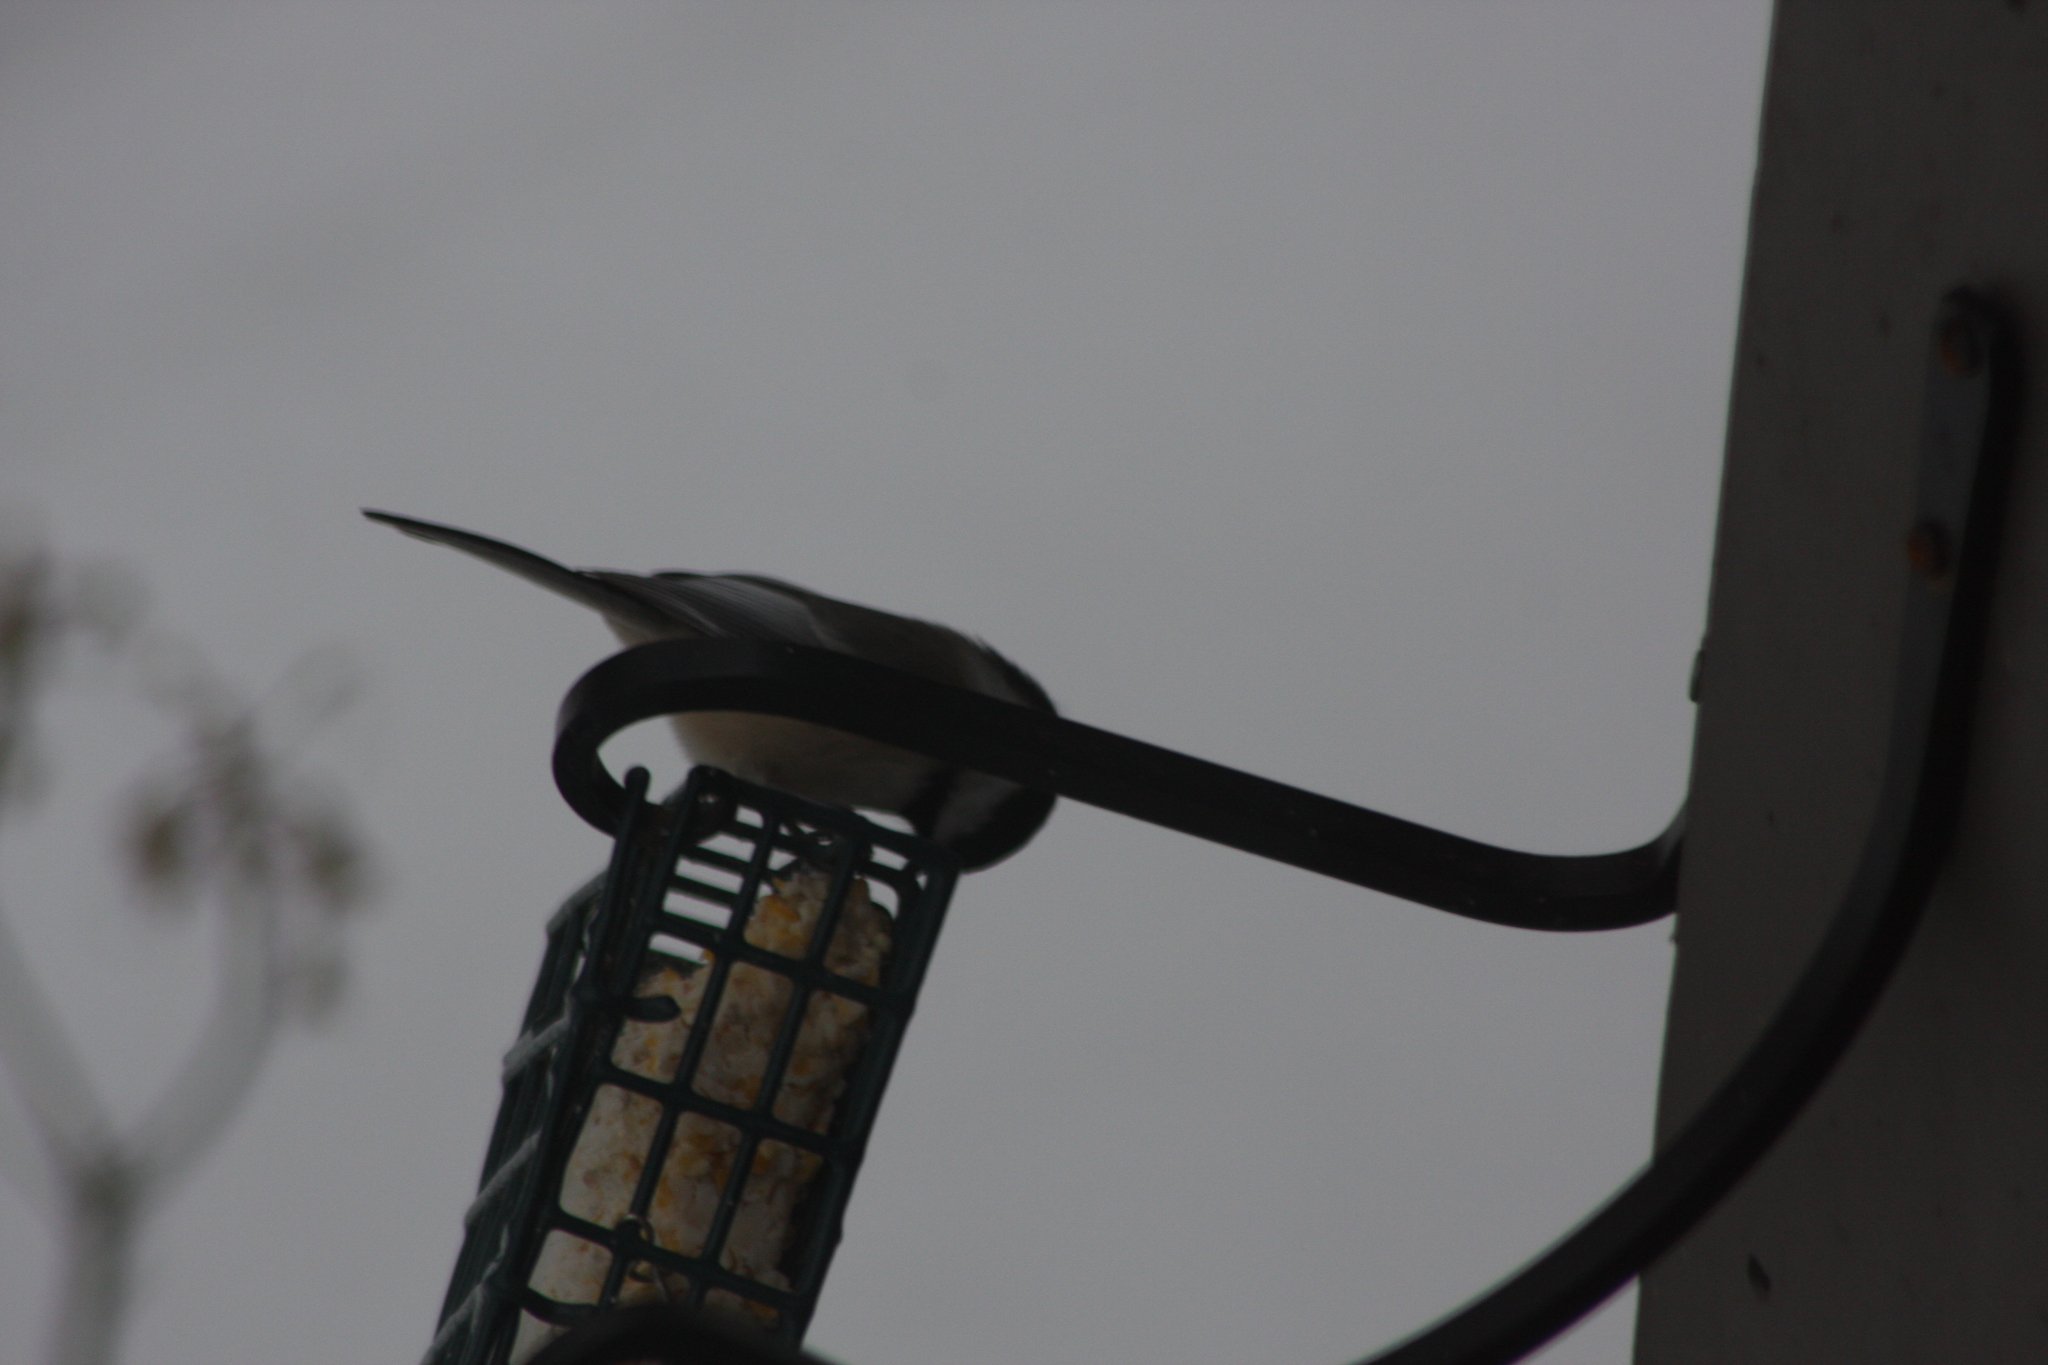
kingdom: Animalia
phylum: Chordata
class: Aves
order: Passeriformes
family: Paridae
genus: Poecile
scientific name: Poecile atricapillus
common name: Black-capped chickadee
